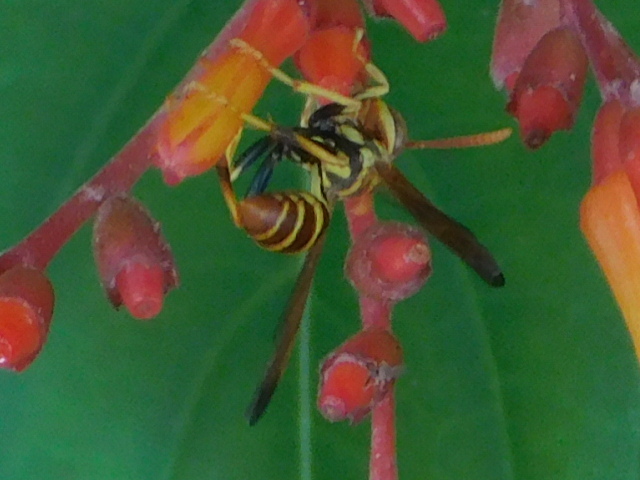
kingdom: Animalia
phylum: Arthropoda
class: Insecta
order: Hymenoptera
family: Vespidae
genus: Mischocyttarus
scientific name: Mischocyttarus mexicanus
